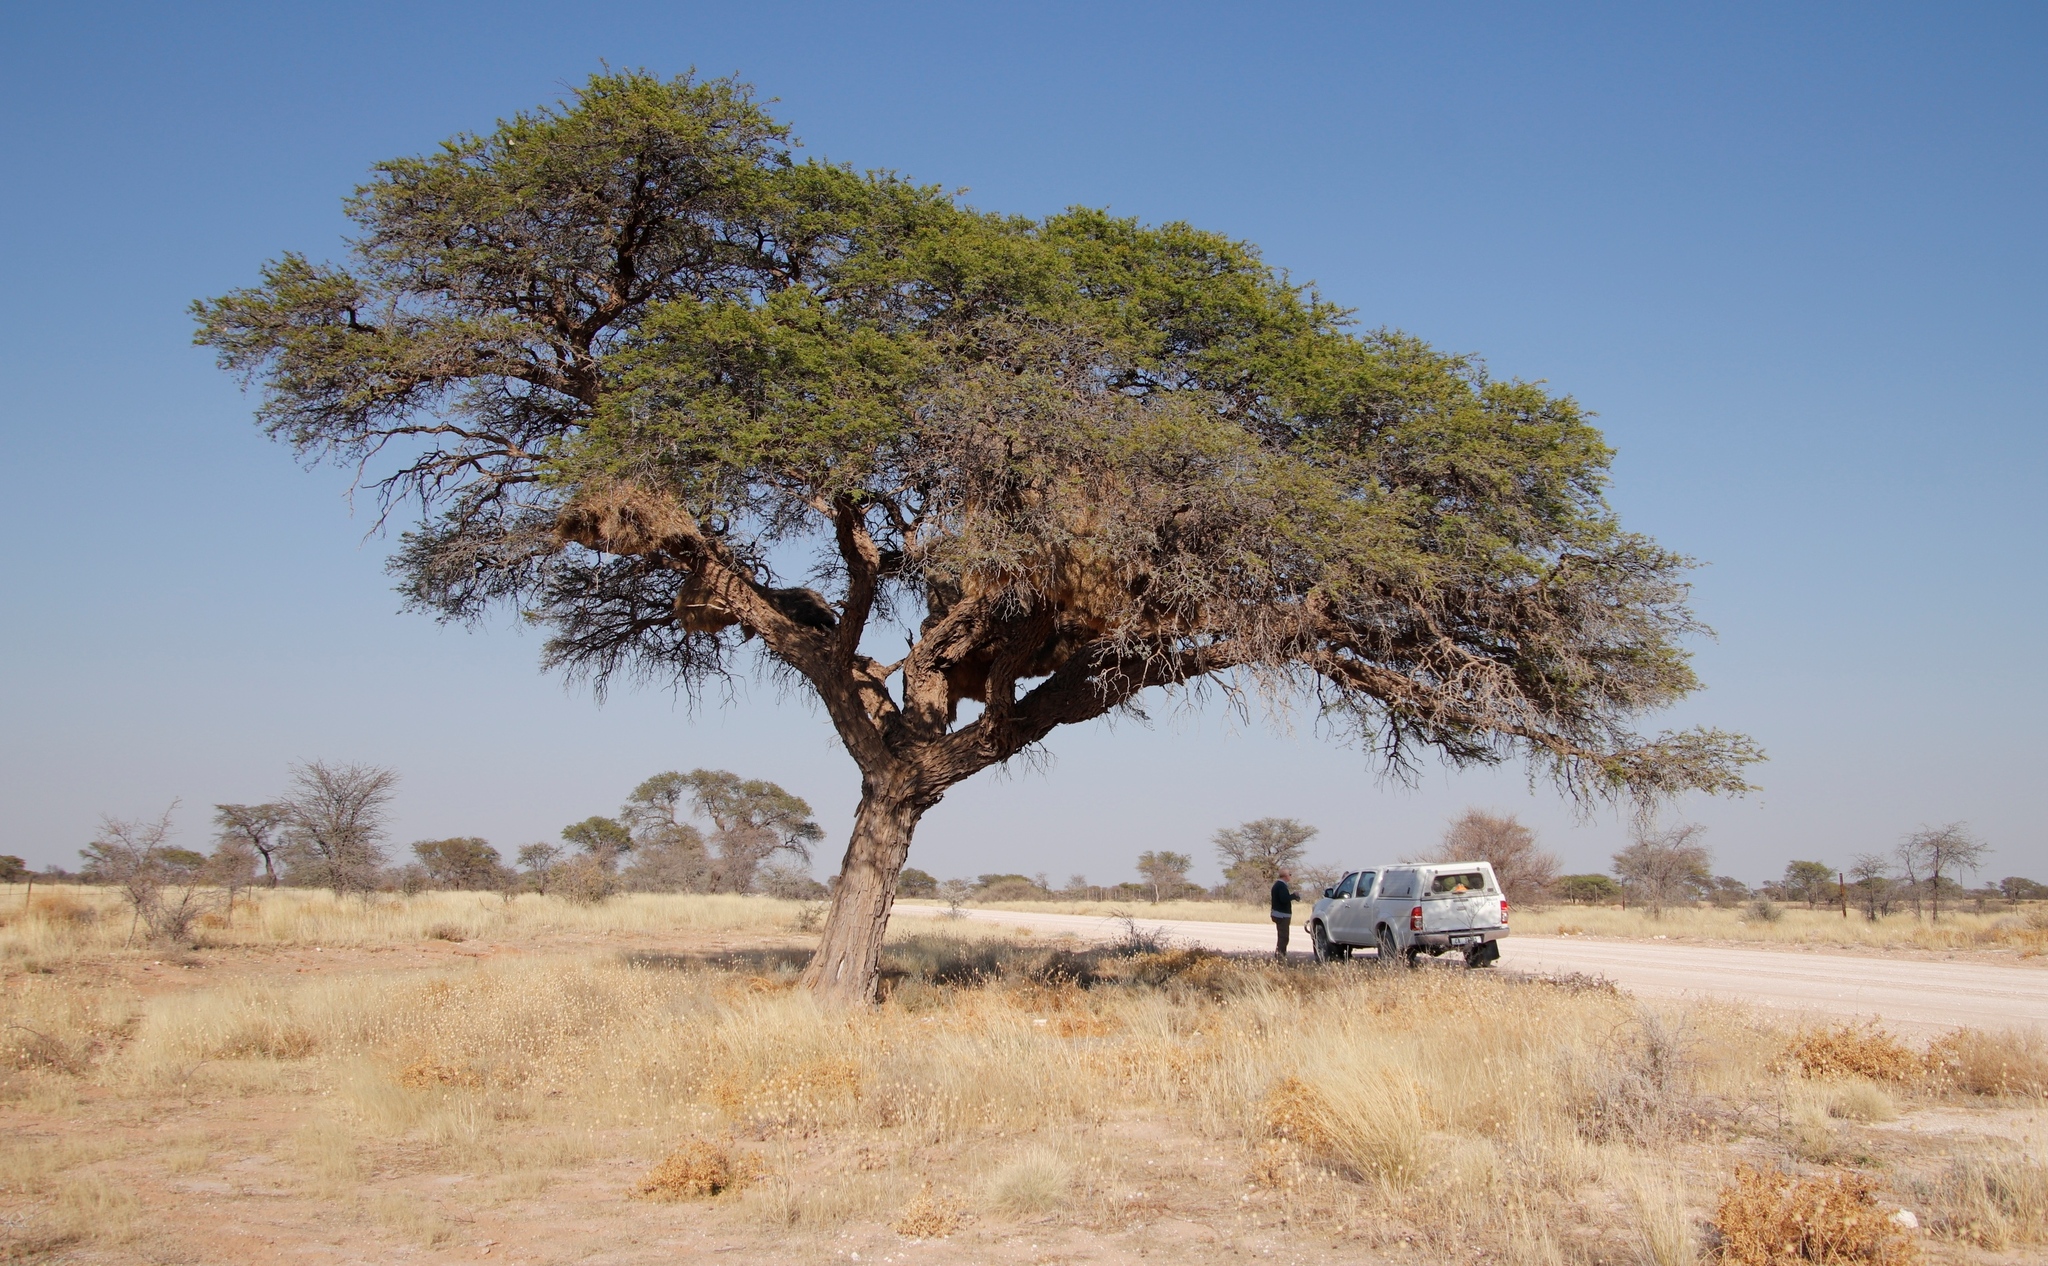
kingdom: Plantae
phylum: Tracheophyta
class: Magnoliopsida
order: Fabales
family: Fabaceae
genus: Vachellia
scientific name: Vachellia erioloba
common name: Camel thorn
